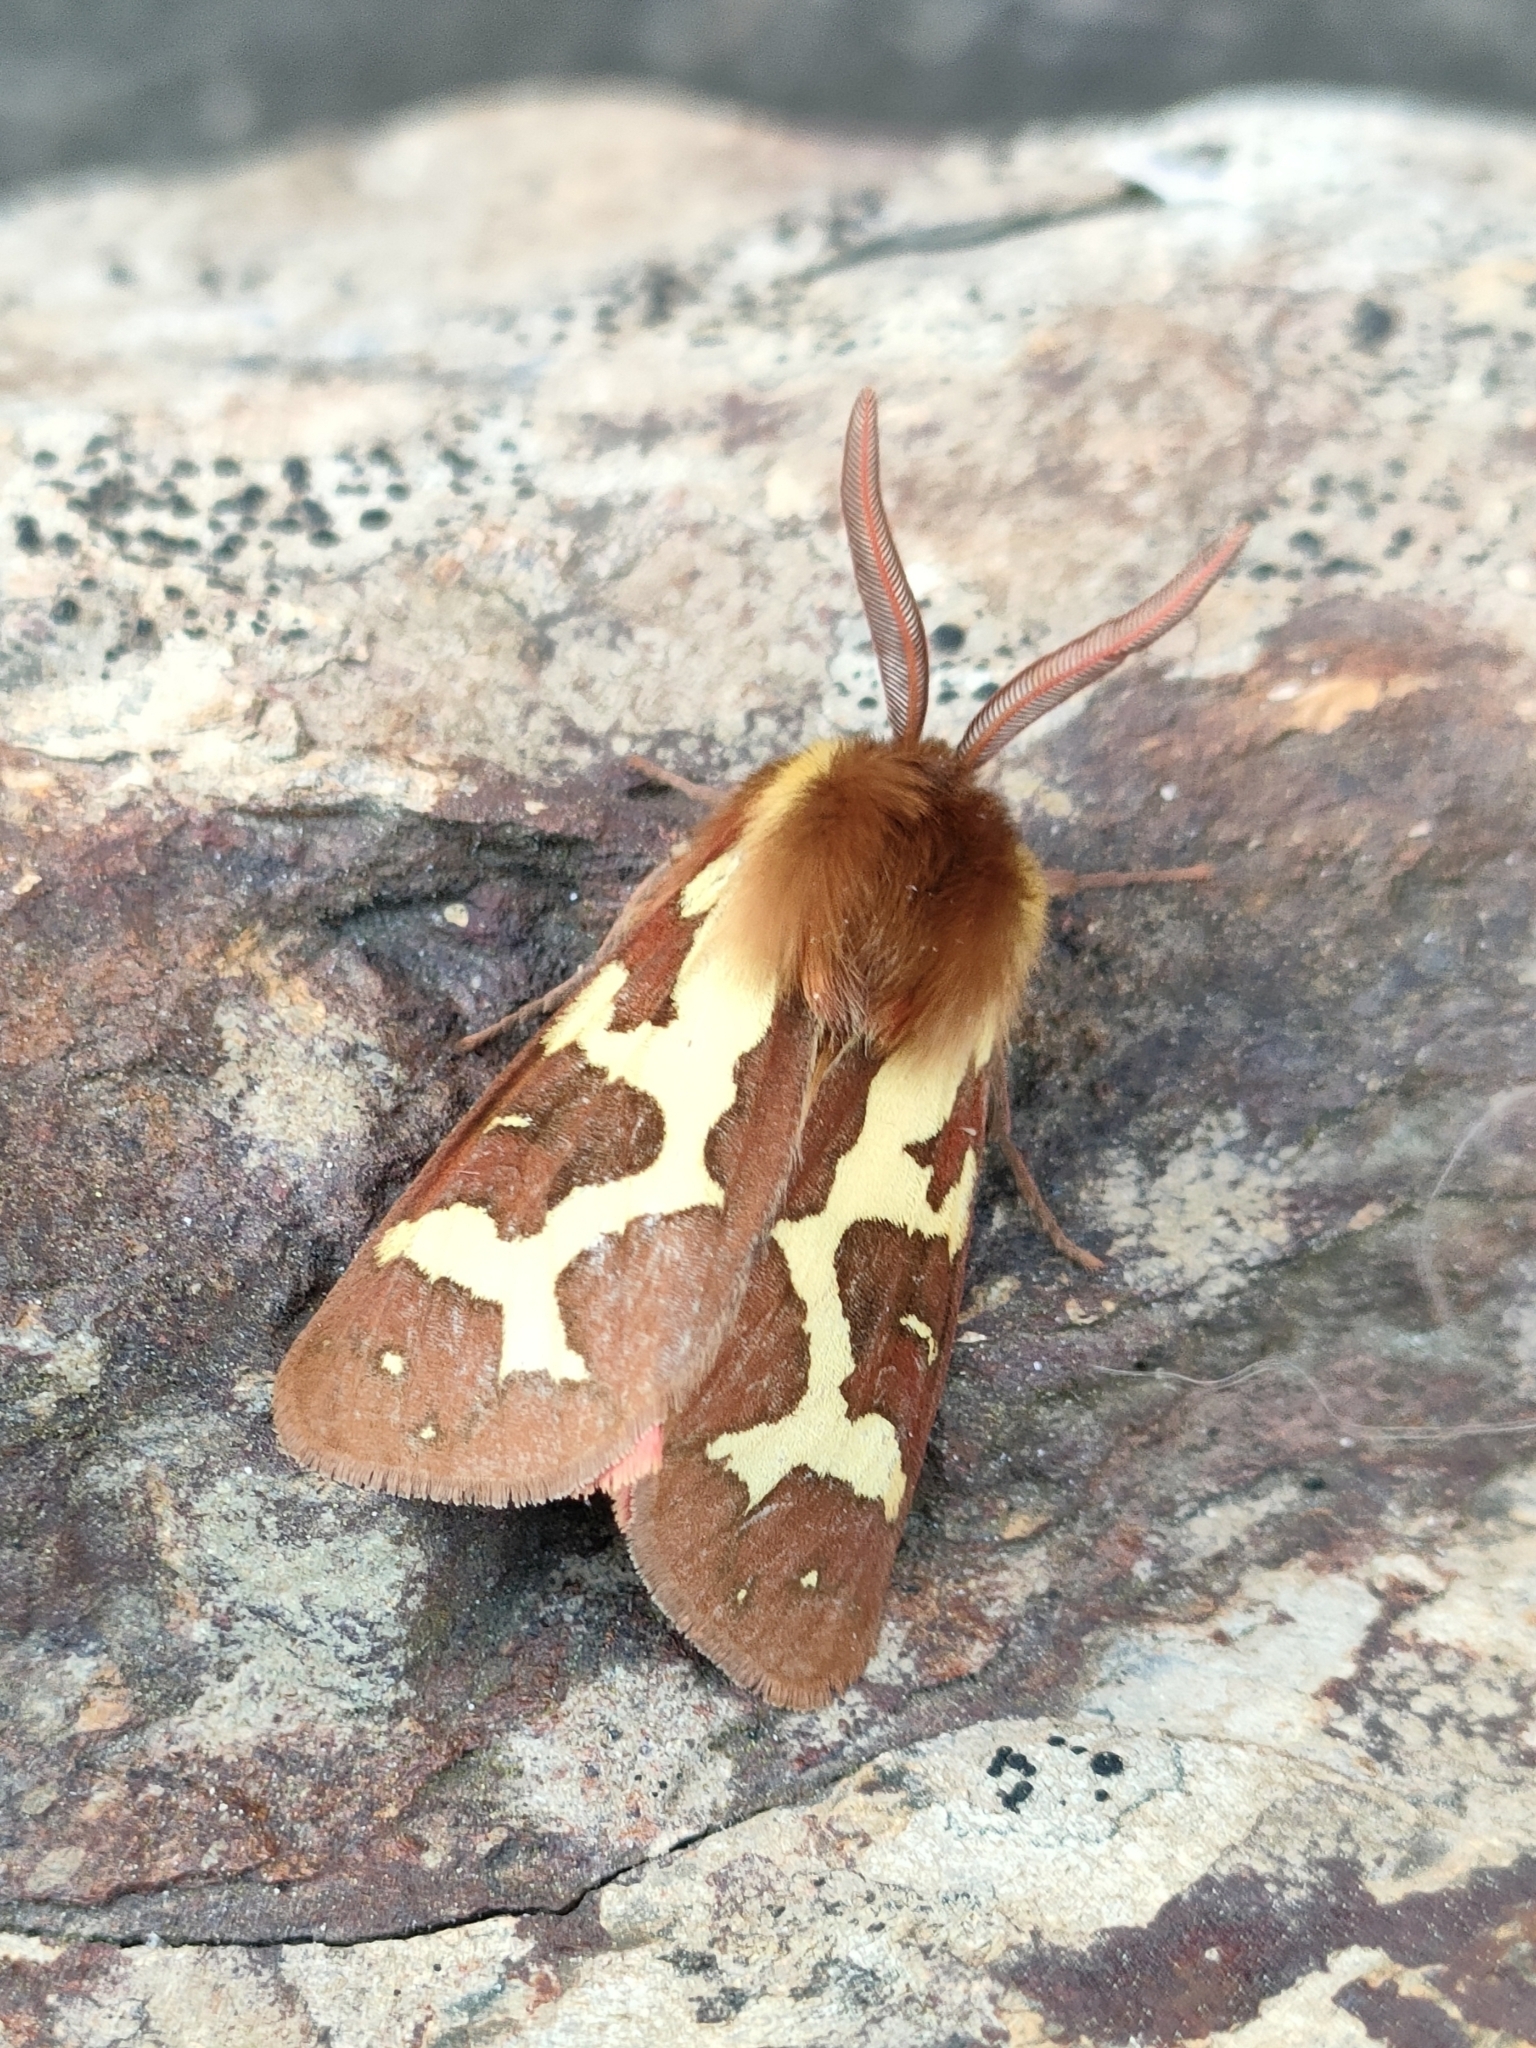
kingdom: Animalia
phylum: Arthropoda
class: Insecta
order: Lepidoptera
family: Erebidae
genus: Arctia
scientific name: Arctia dejeani
